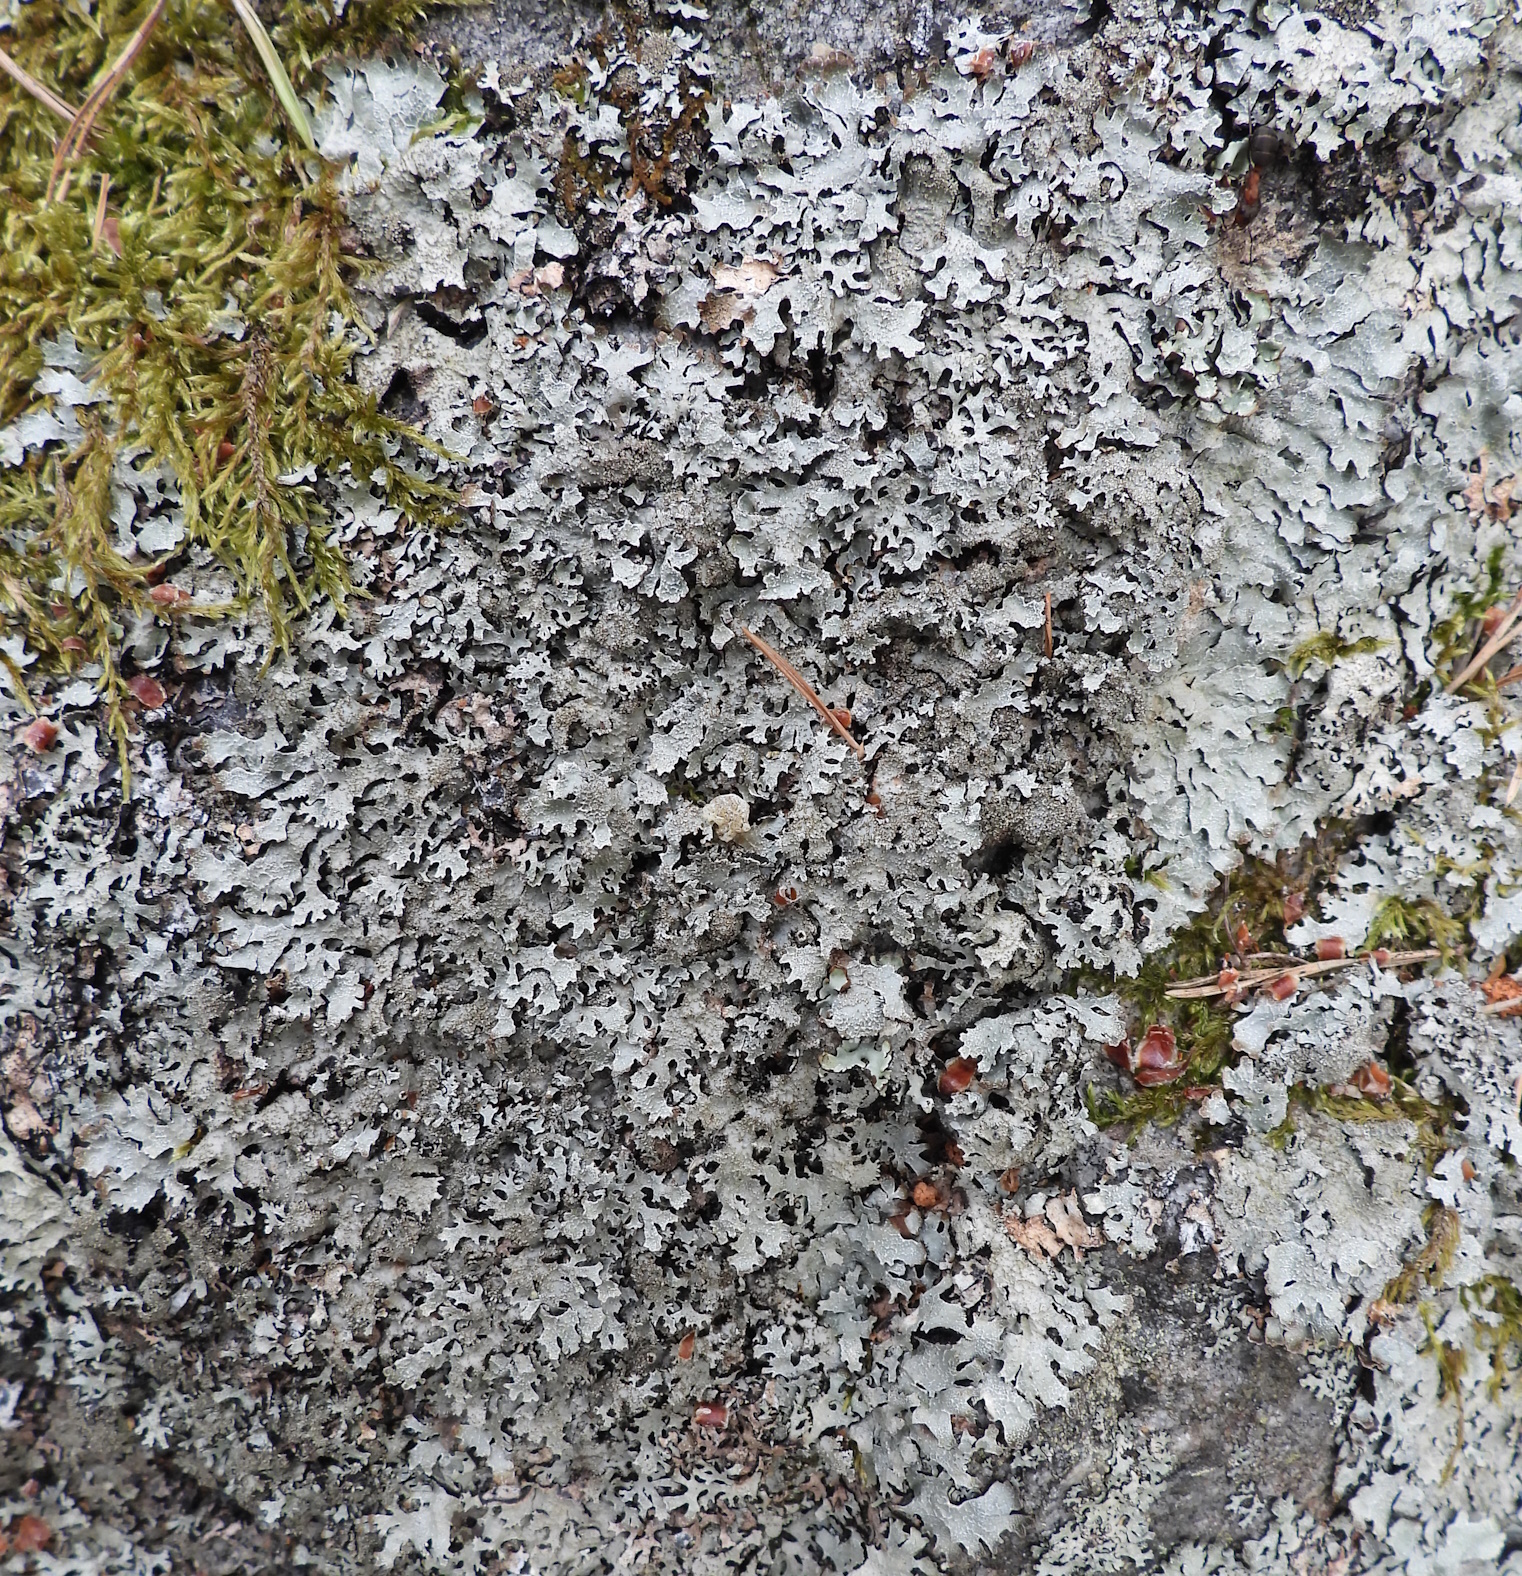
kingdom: Fungi
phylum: Ascomycota
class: Lecanoromycetes
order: Lecanorales
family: Parmeliaceae
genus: Parmelia
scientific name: Parmelia saxatilis
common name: Salted shield lichen
